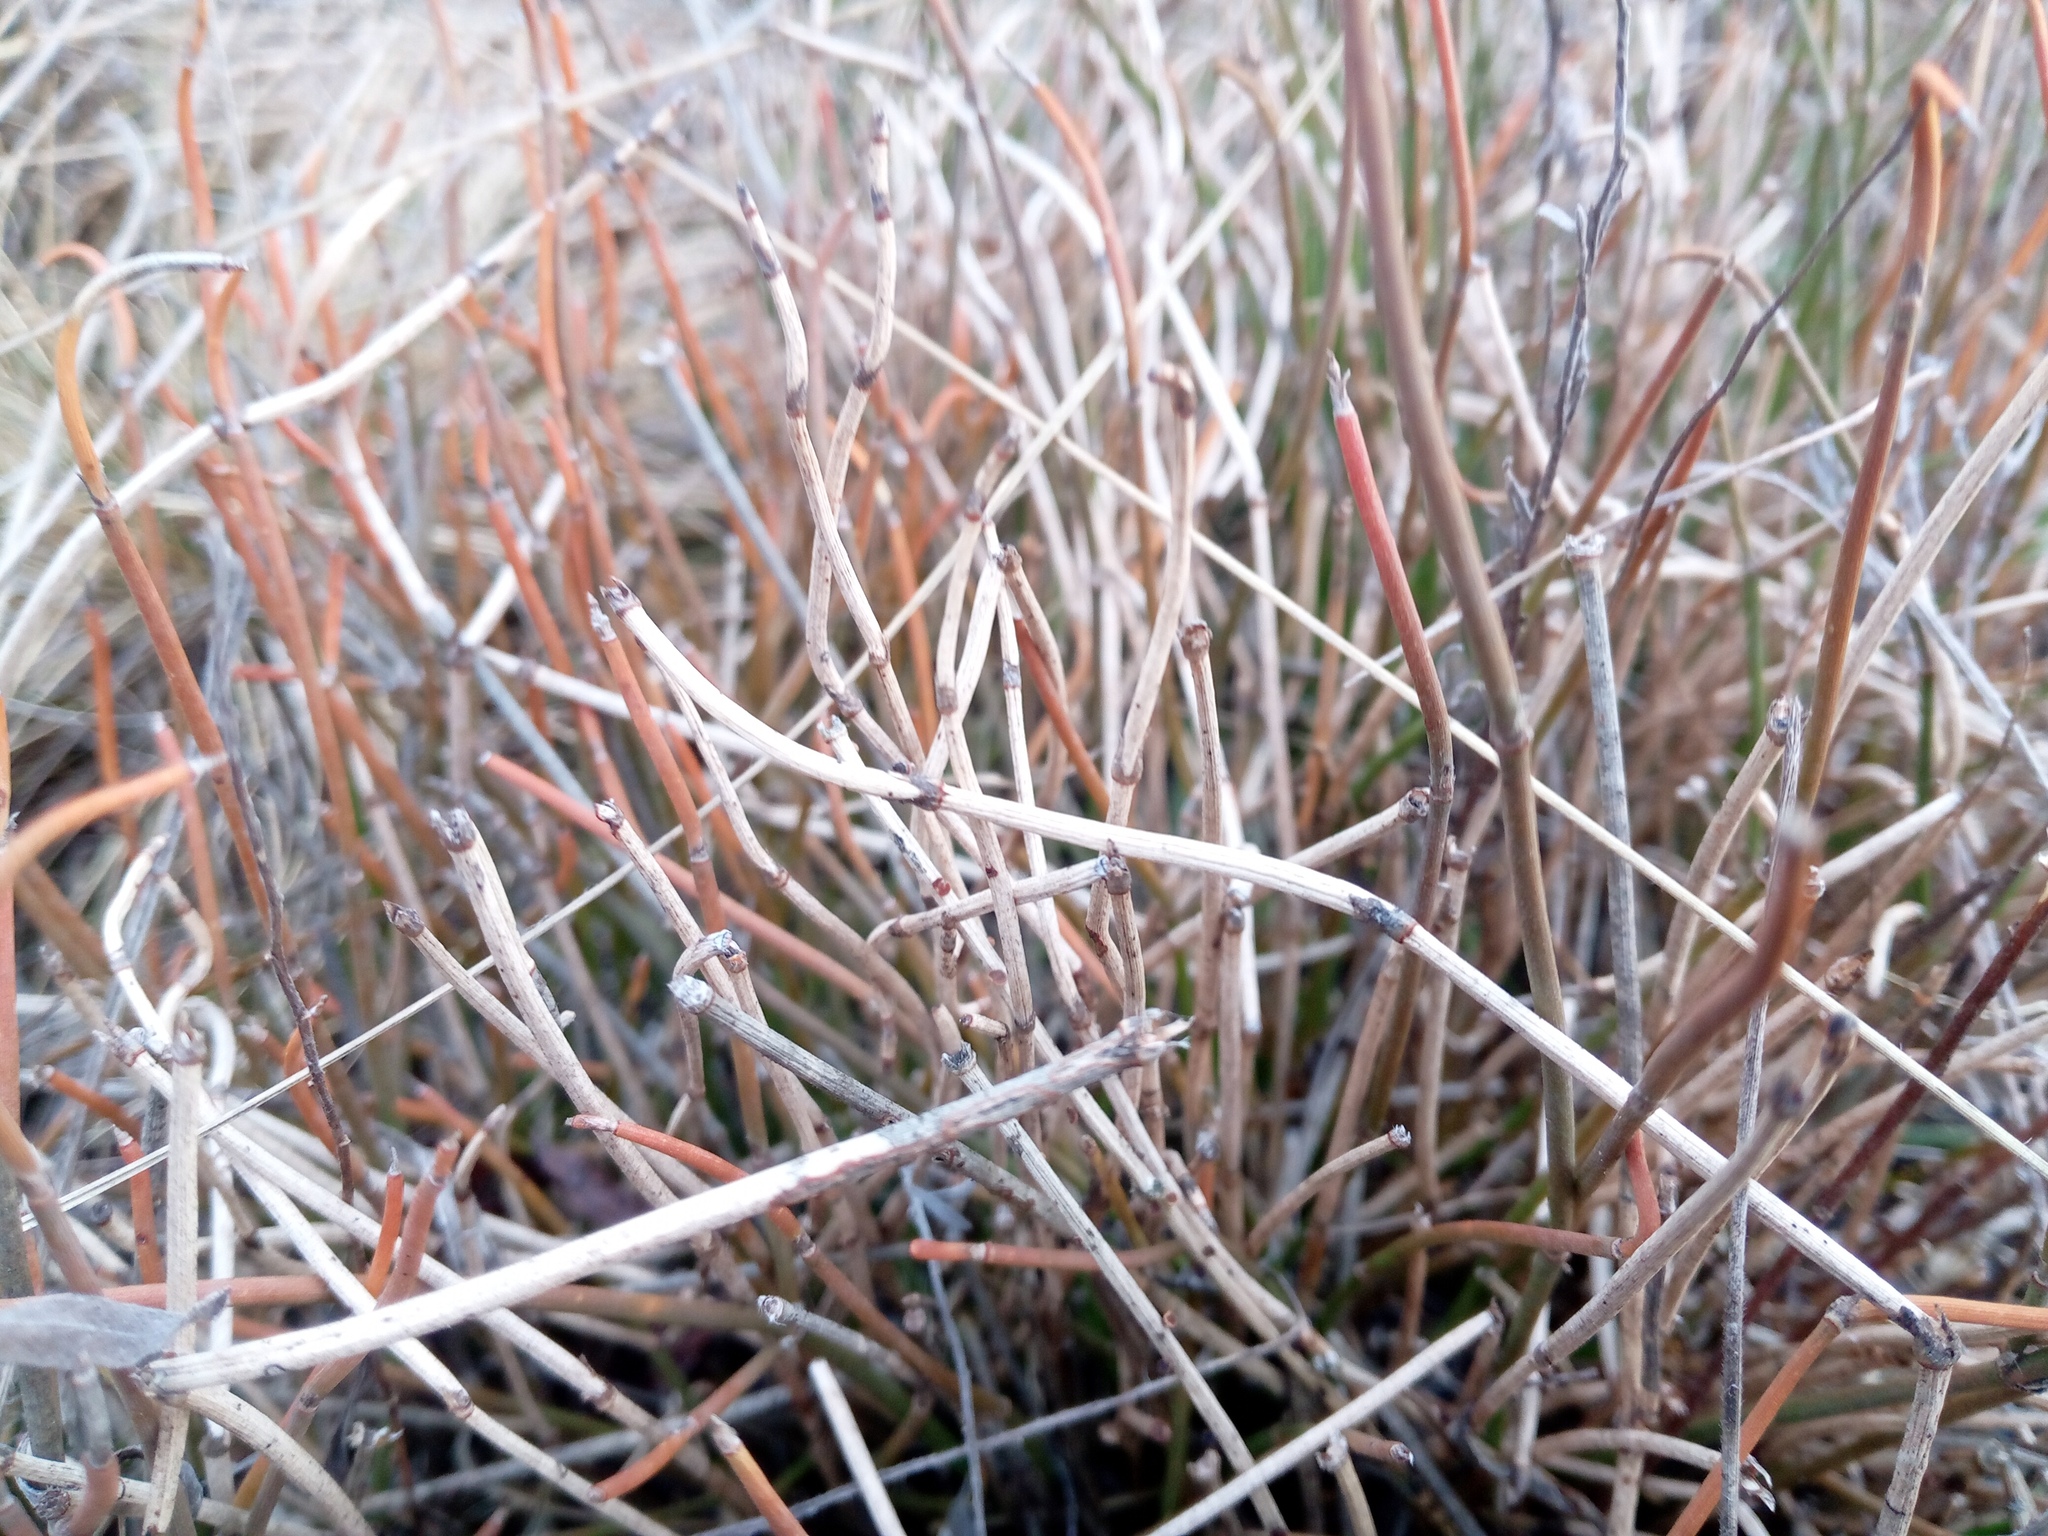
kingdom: Plantae
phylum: Tracheophyta
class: Gnetopsida
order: Ephedrales
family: Ephedraceae
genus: Ephedra
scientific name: Ephedra distachya
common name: Sea grape
